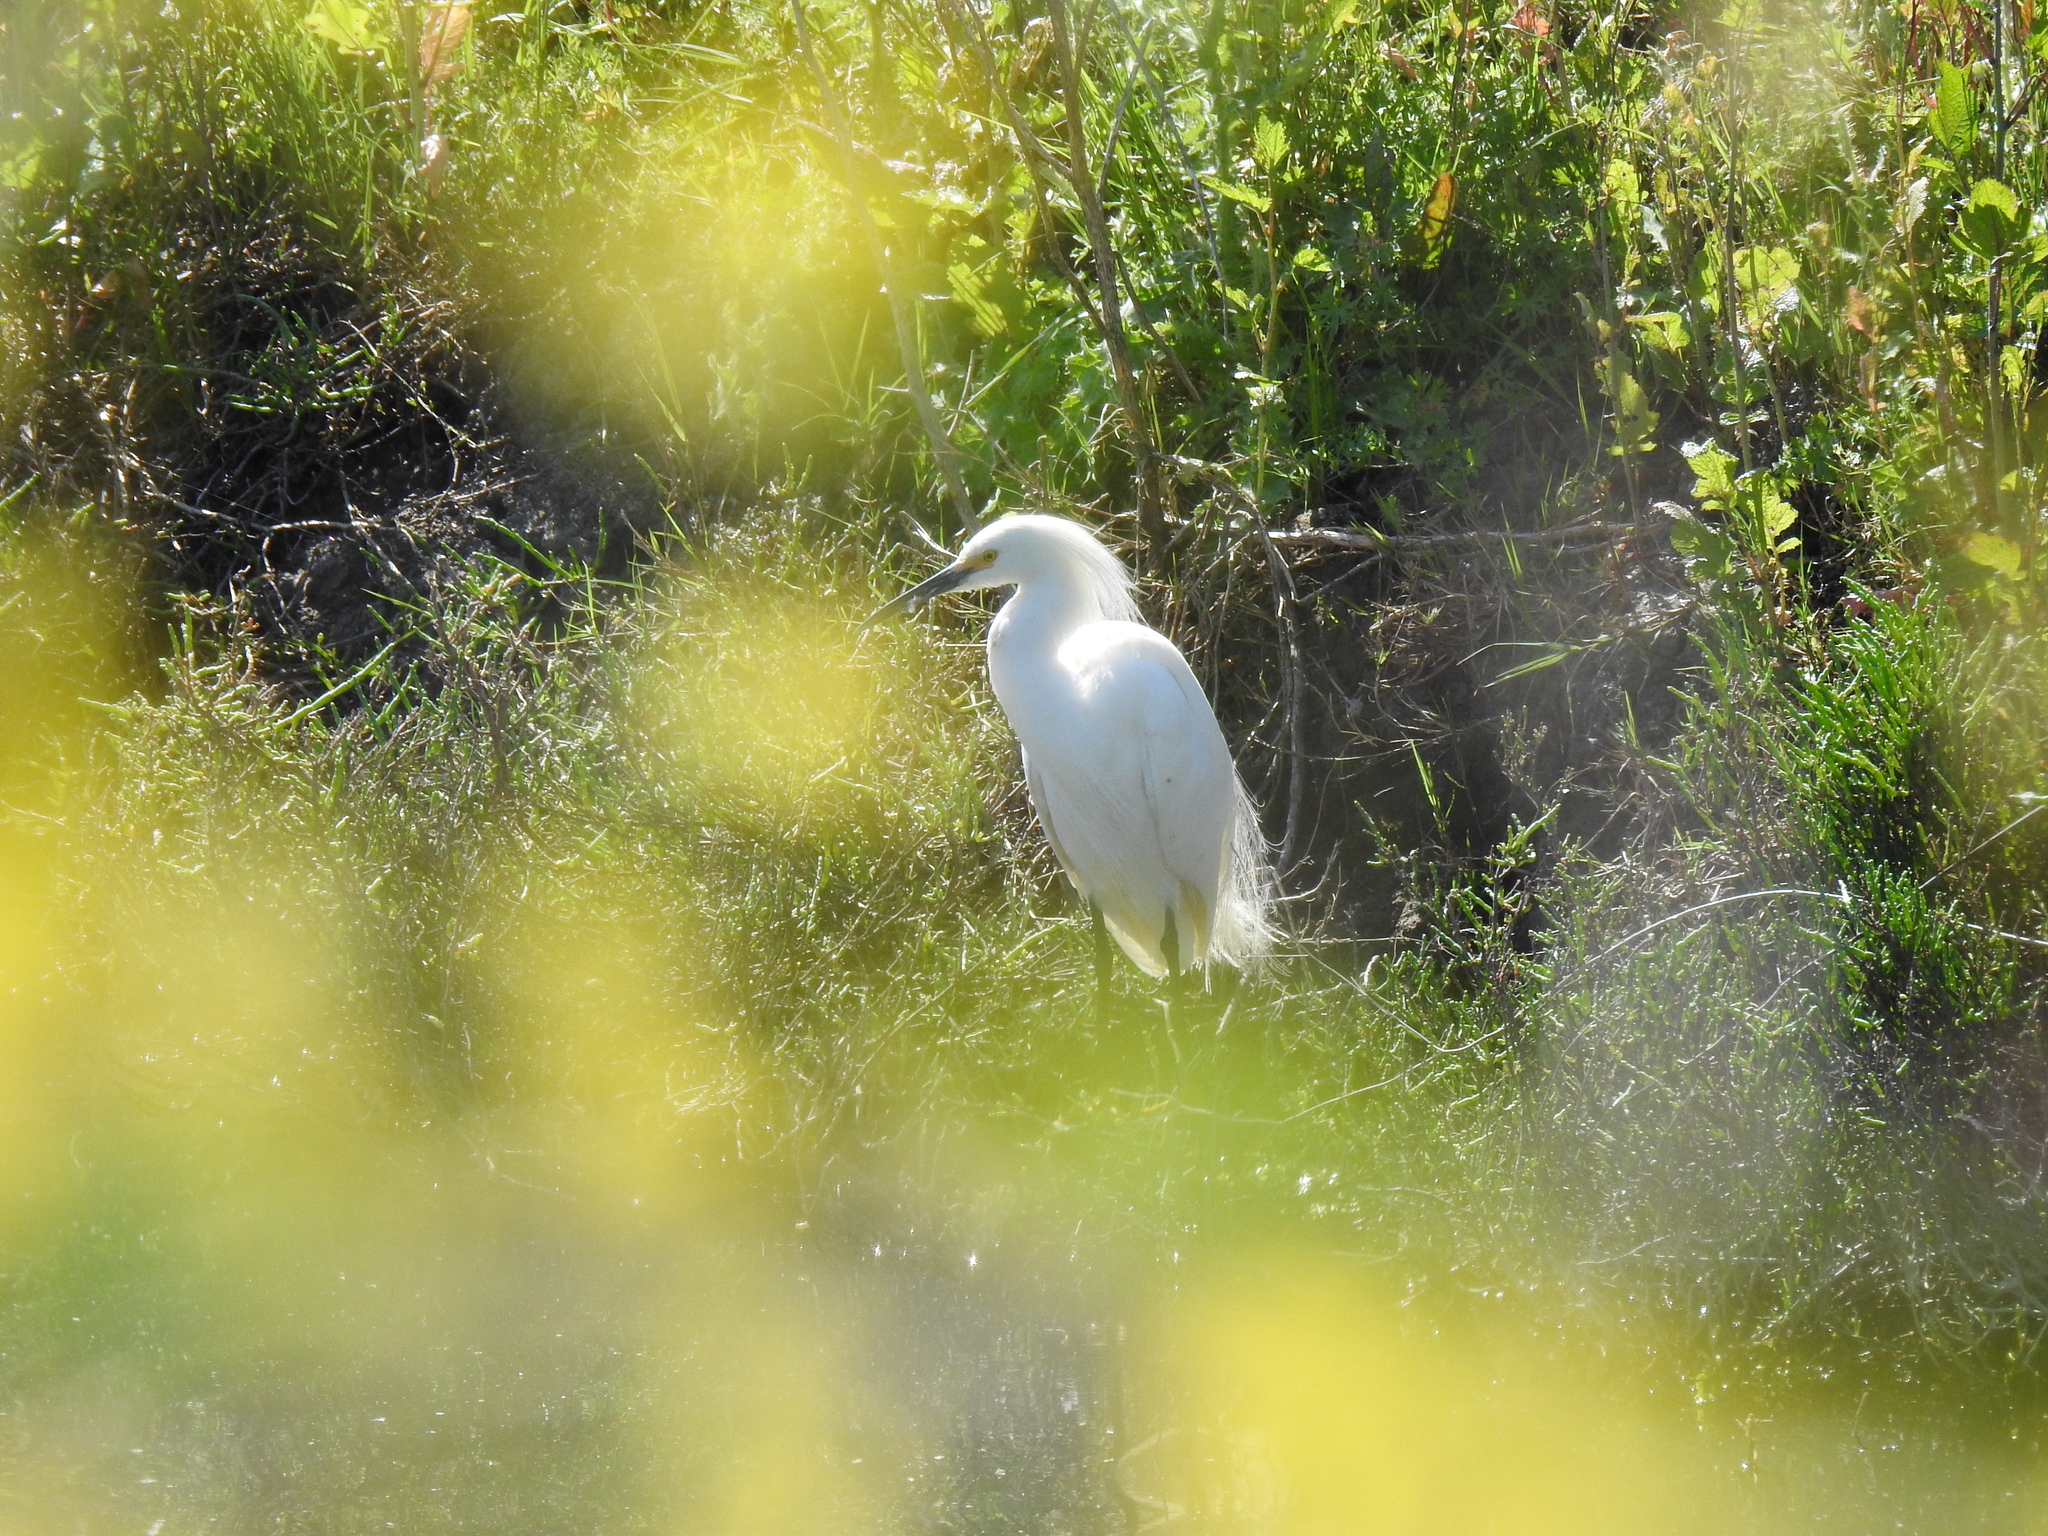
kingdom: Animalia
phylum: Chordata
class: Aves
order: Pelecaniformes
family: Ardeidae
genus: Egretta
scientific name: Egretta thula
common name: Snowy egret
